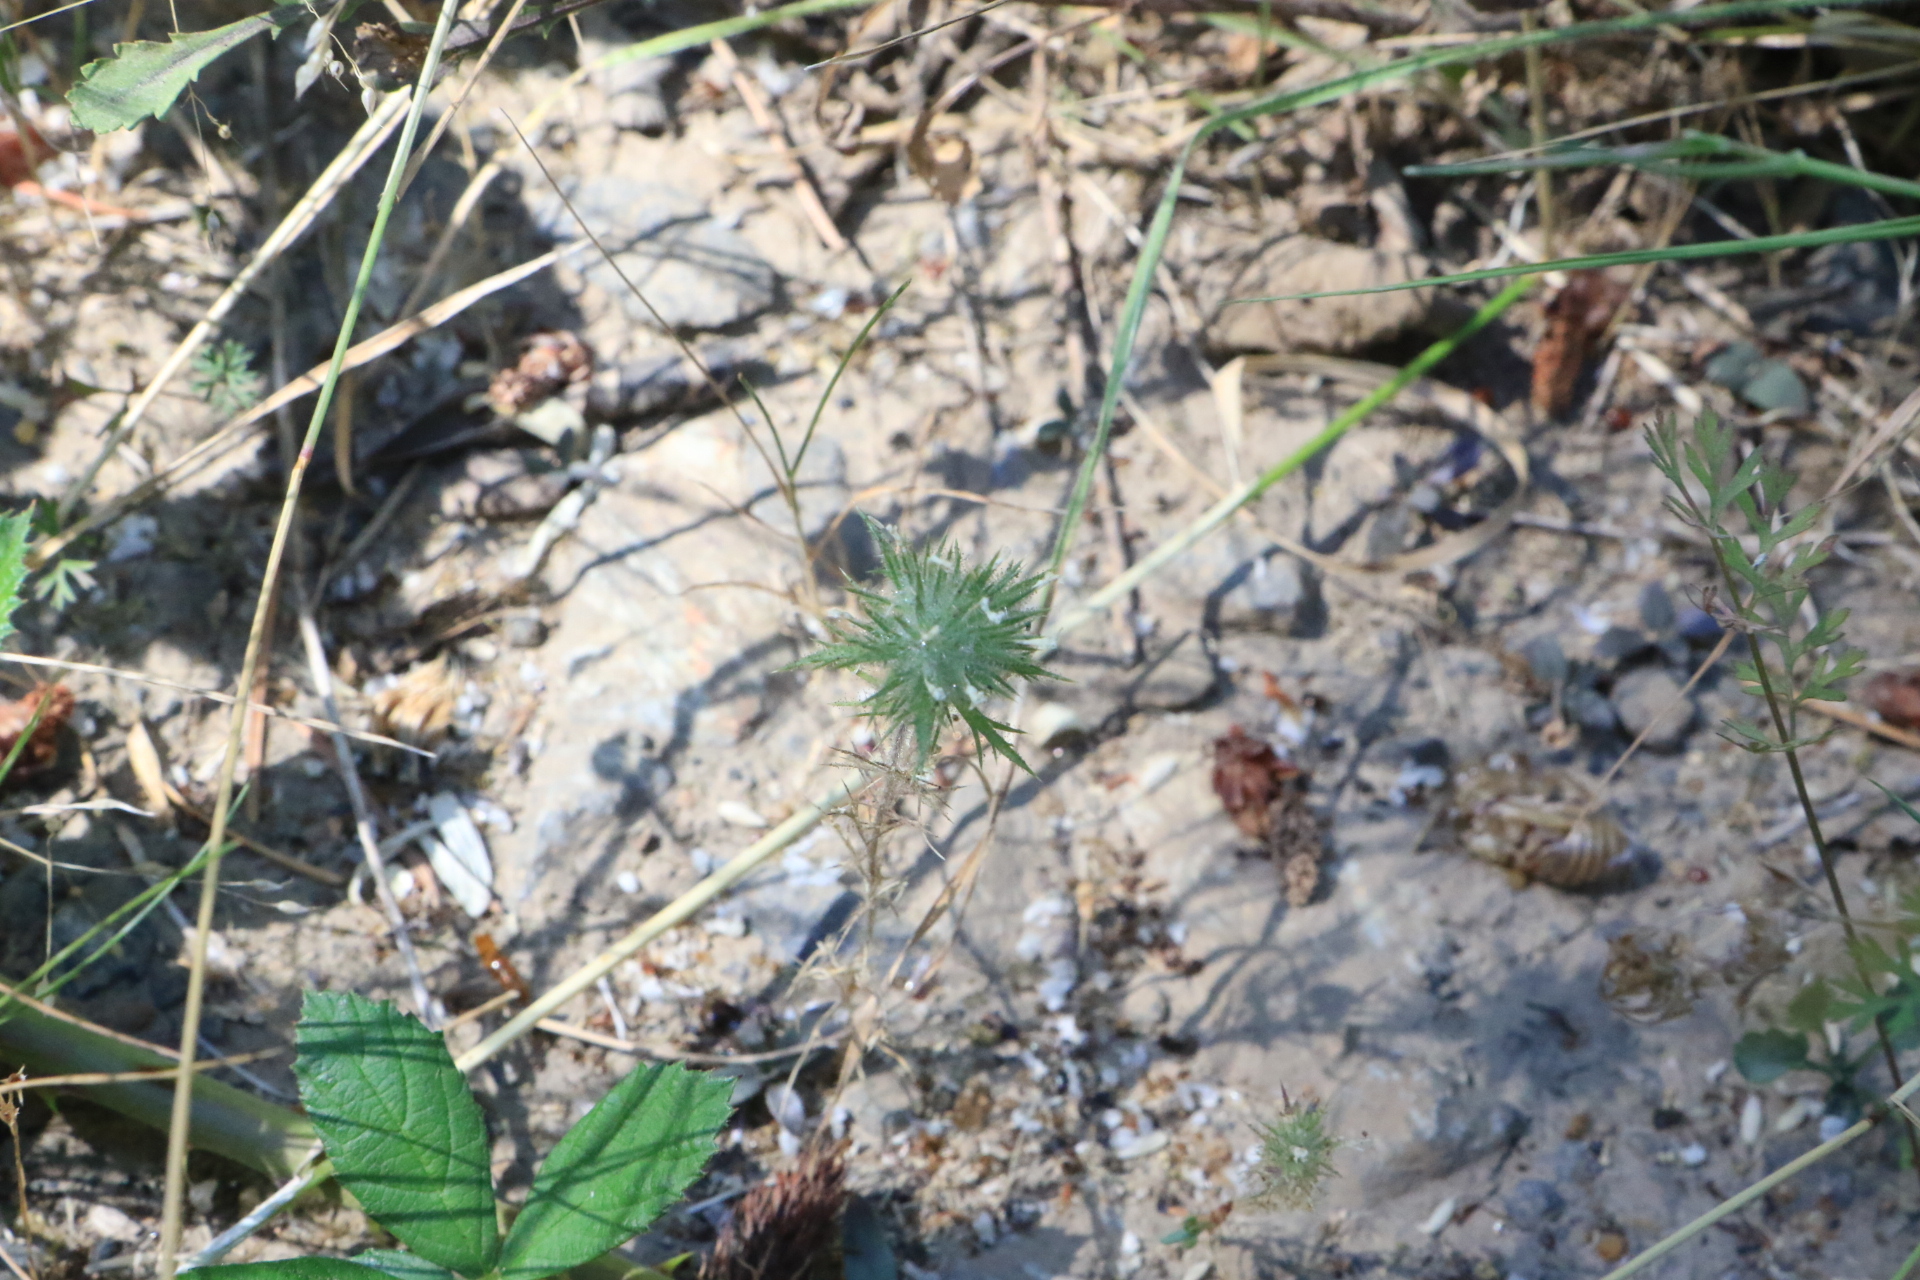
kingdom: Plantae
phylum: Tracheophyta
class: Magnoliopsida
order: Ericales
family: Polemoniaceae
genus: Navarretia
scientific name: Navarretia squarrosa
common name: Skunkweed
